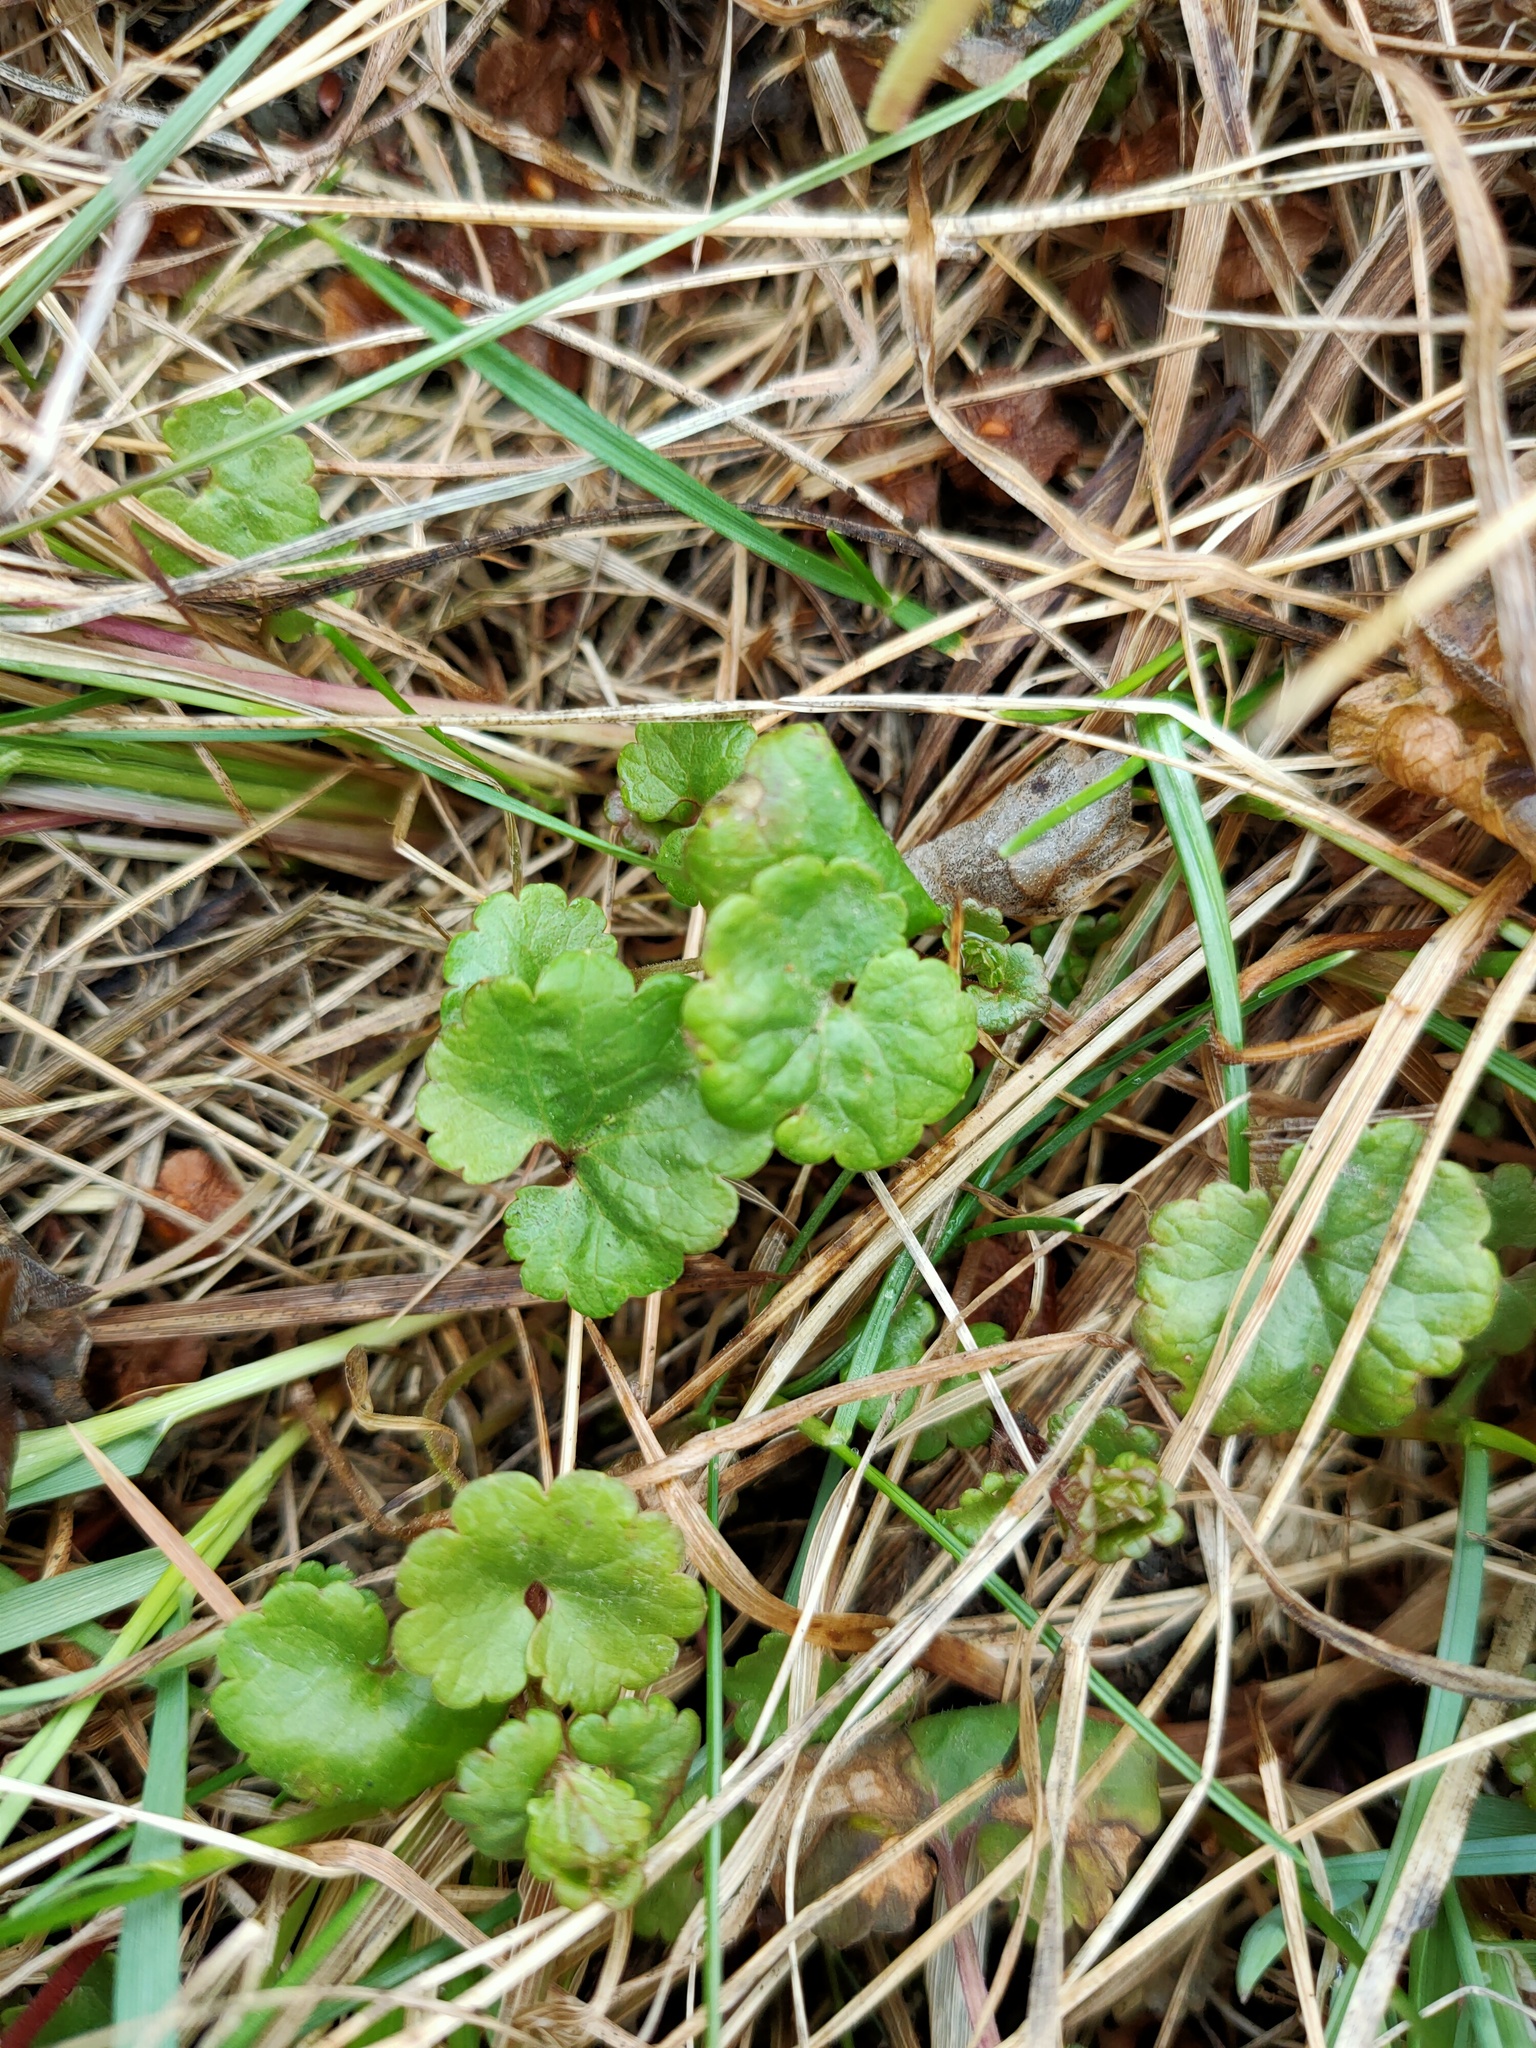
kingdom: Plantae
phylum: Tracheophyta
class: Magnoliopsida
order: Lamiales
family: Lamiaceae
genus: Glechoma
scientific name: Glechoma hederacea
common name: Ground ivy
